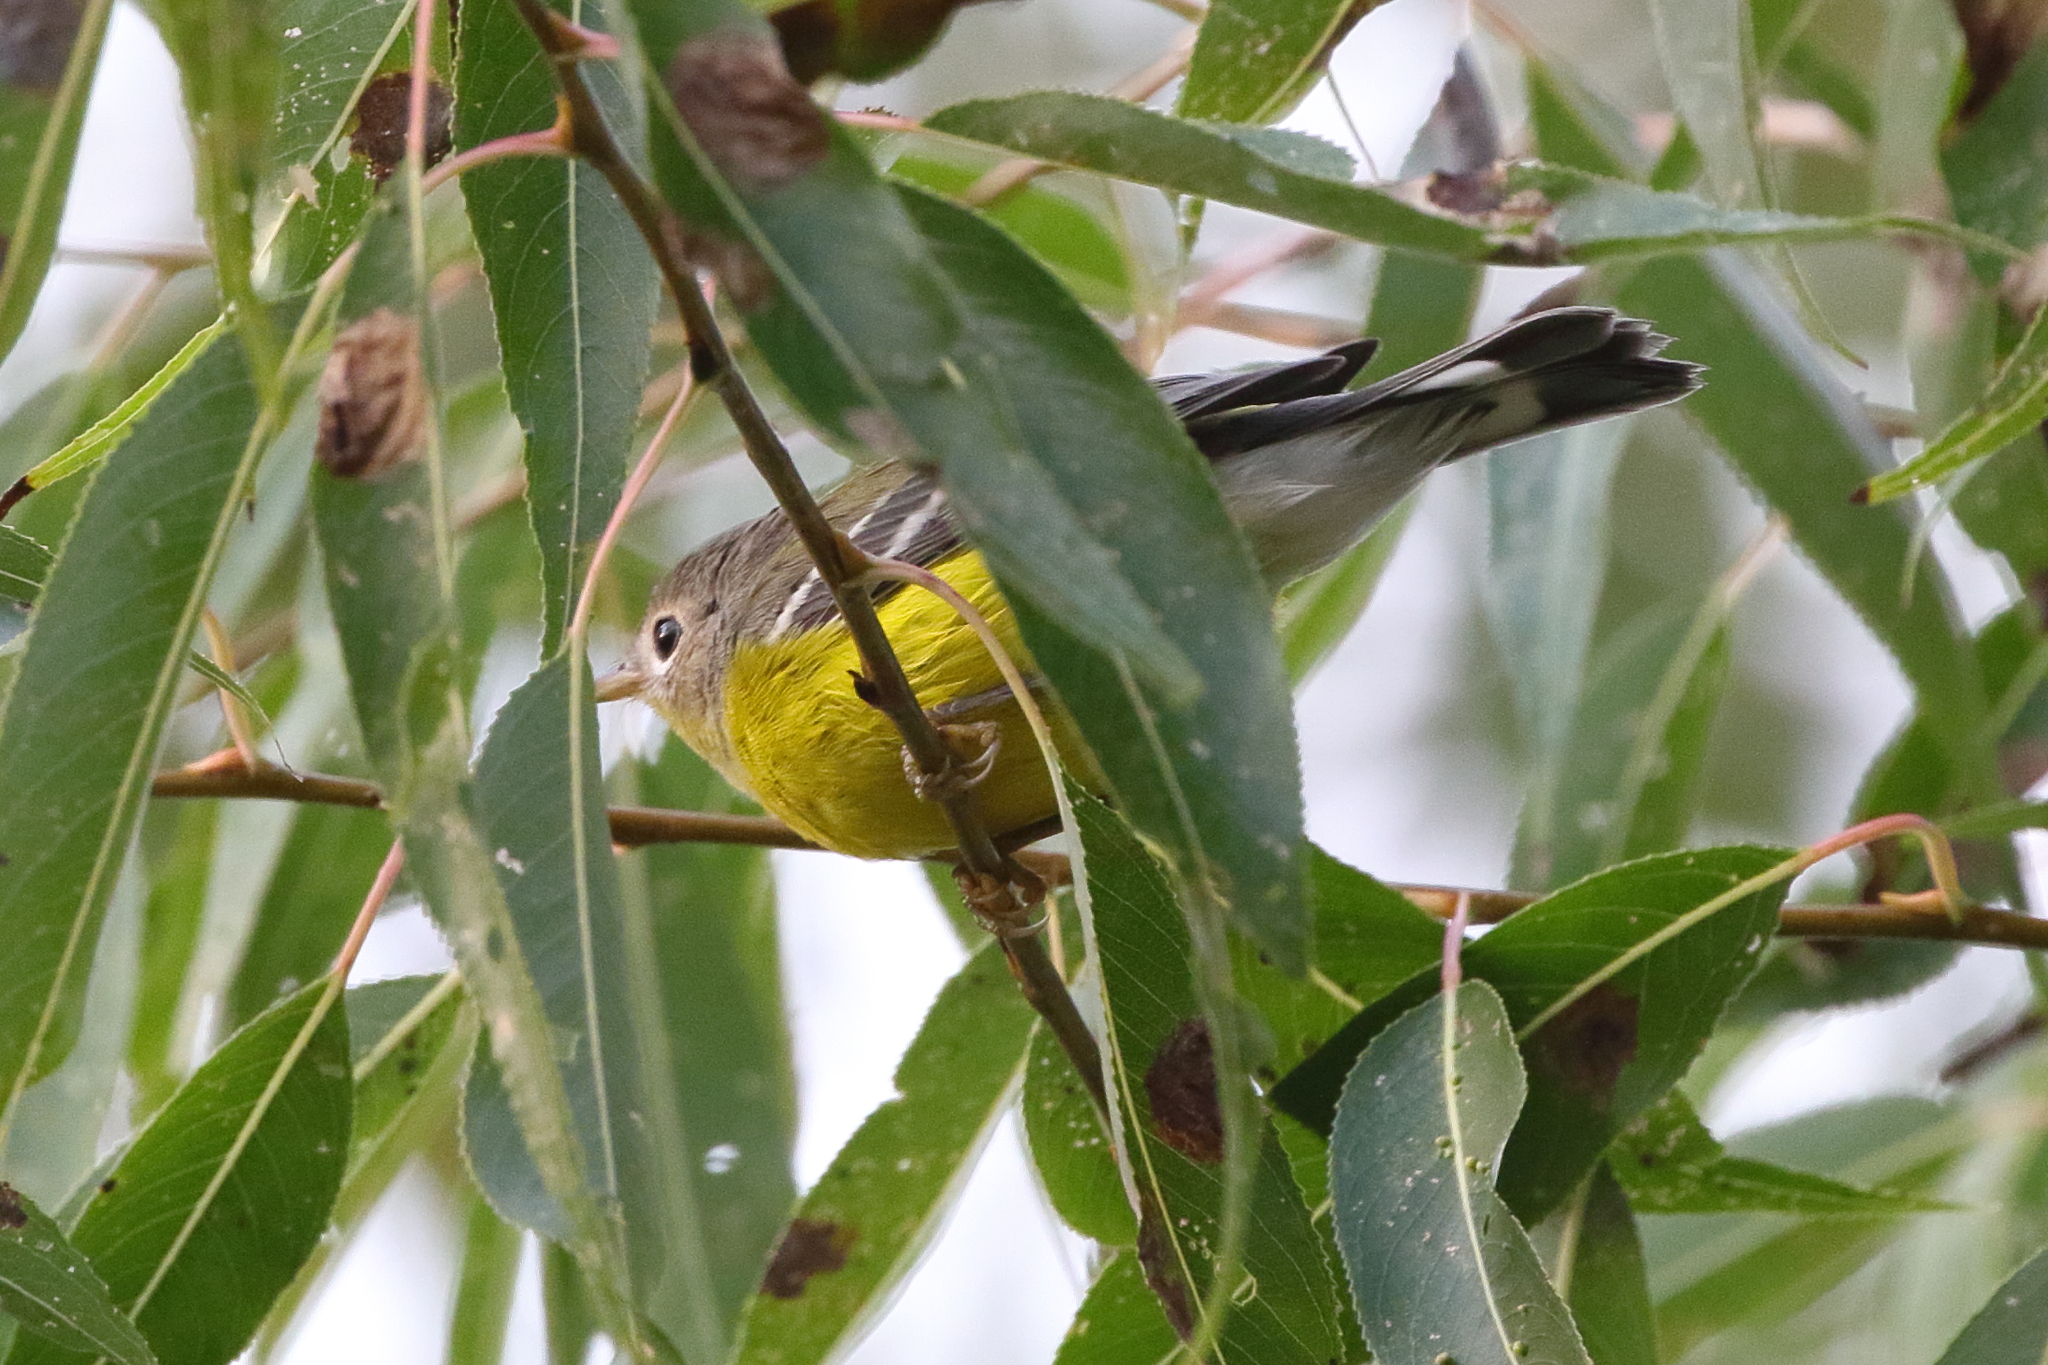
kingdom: Animalia
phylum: Chordata
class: Aves
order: Passeriformes
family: Parulidae
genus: Setophaga
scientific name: Setophaga magnolia
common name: Magnolia warbler
